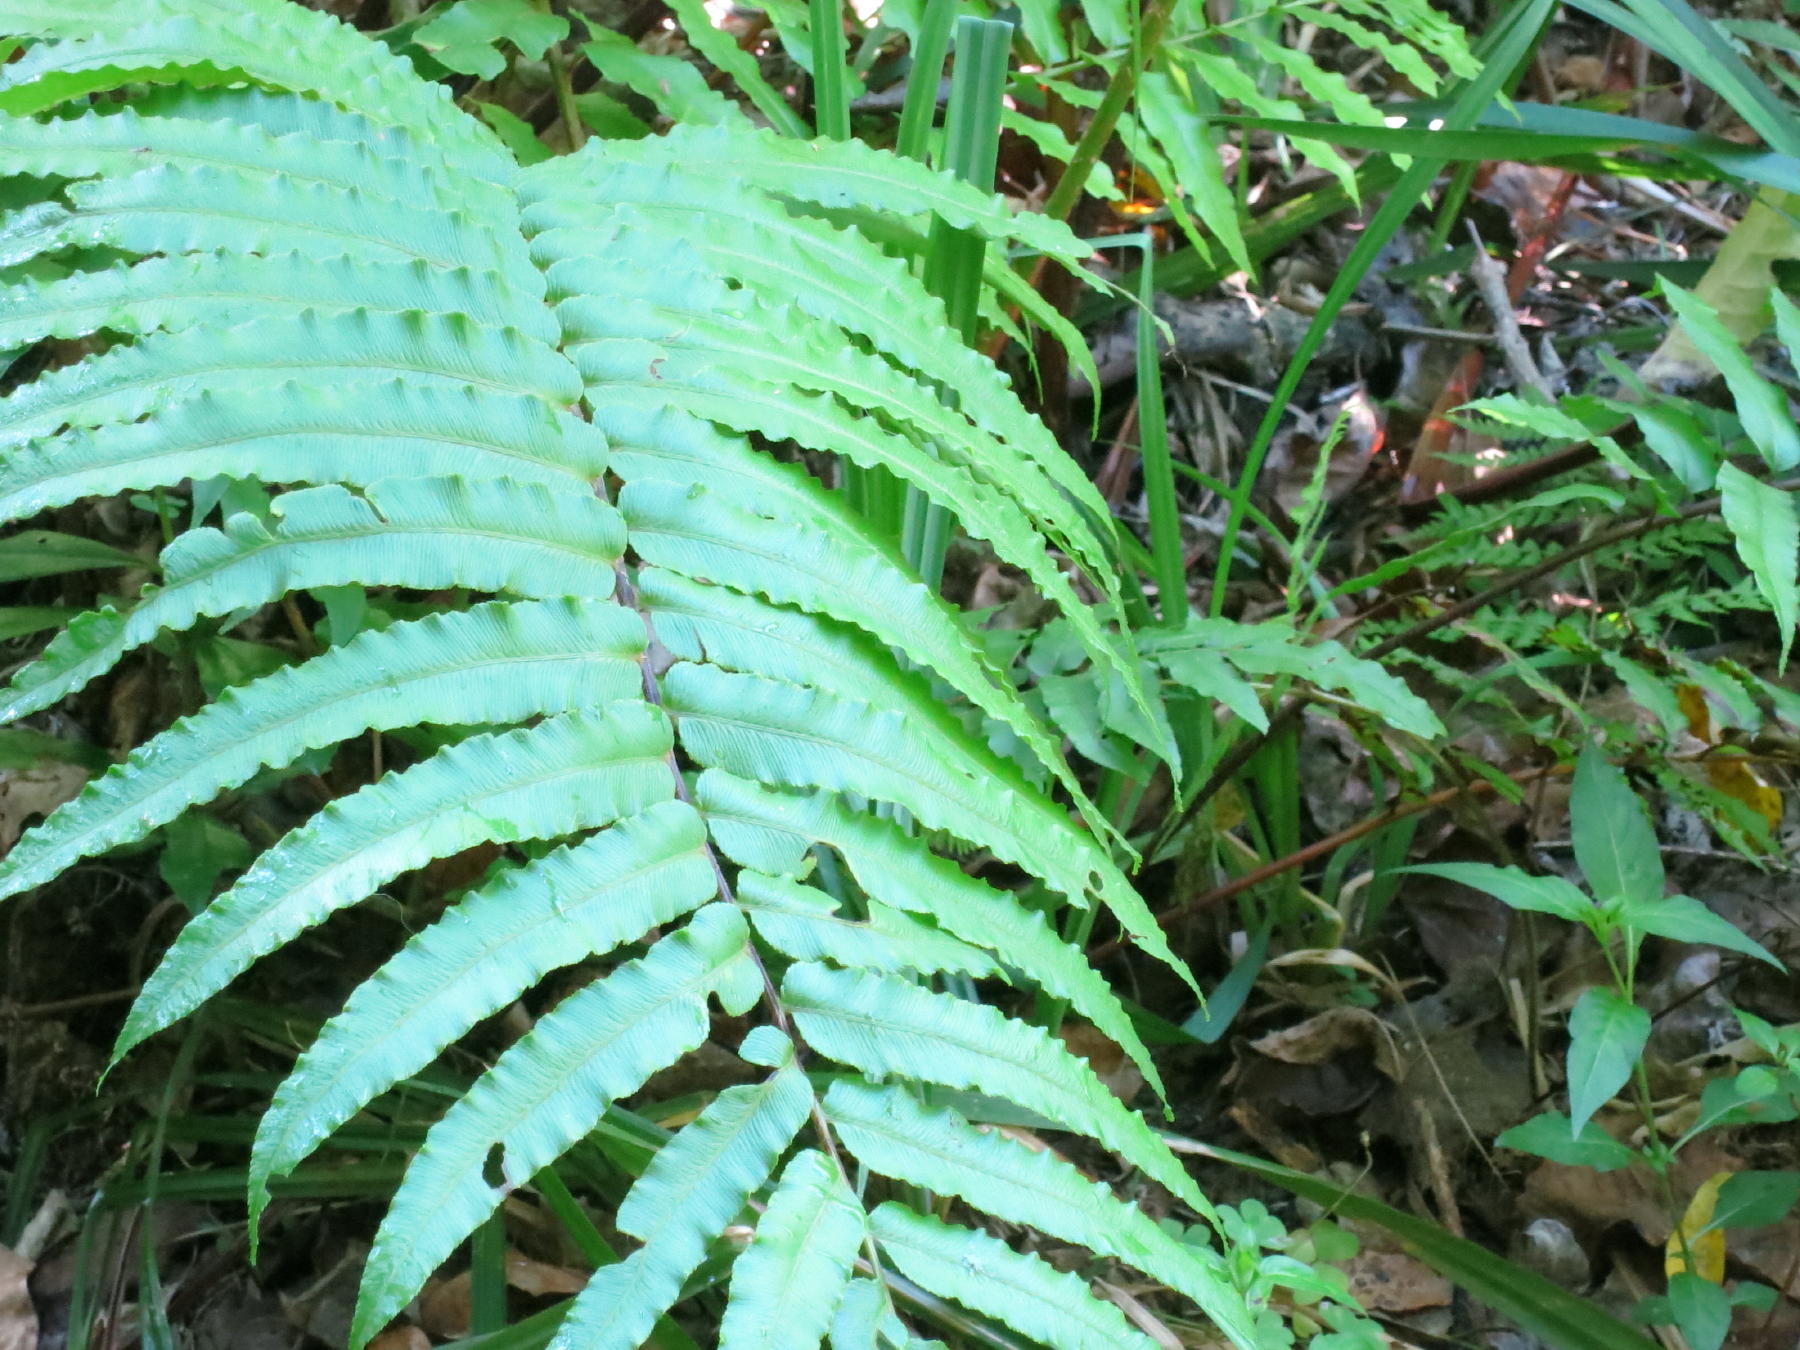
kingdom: Plantae
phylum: Tracheophyta
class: Polypodiopsida
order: Polypodiales
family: Blechnaceae
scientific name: Blechnaceae
